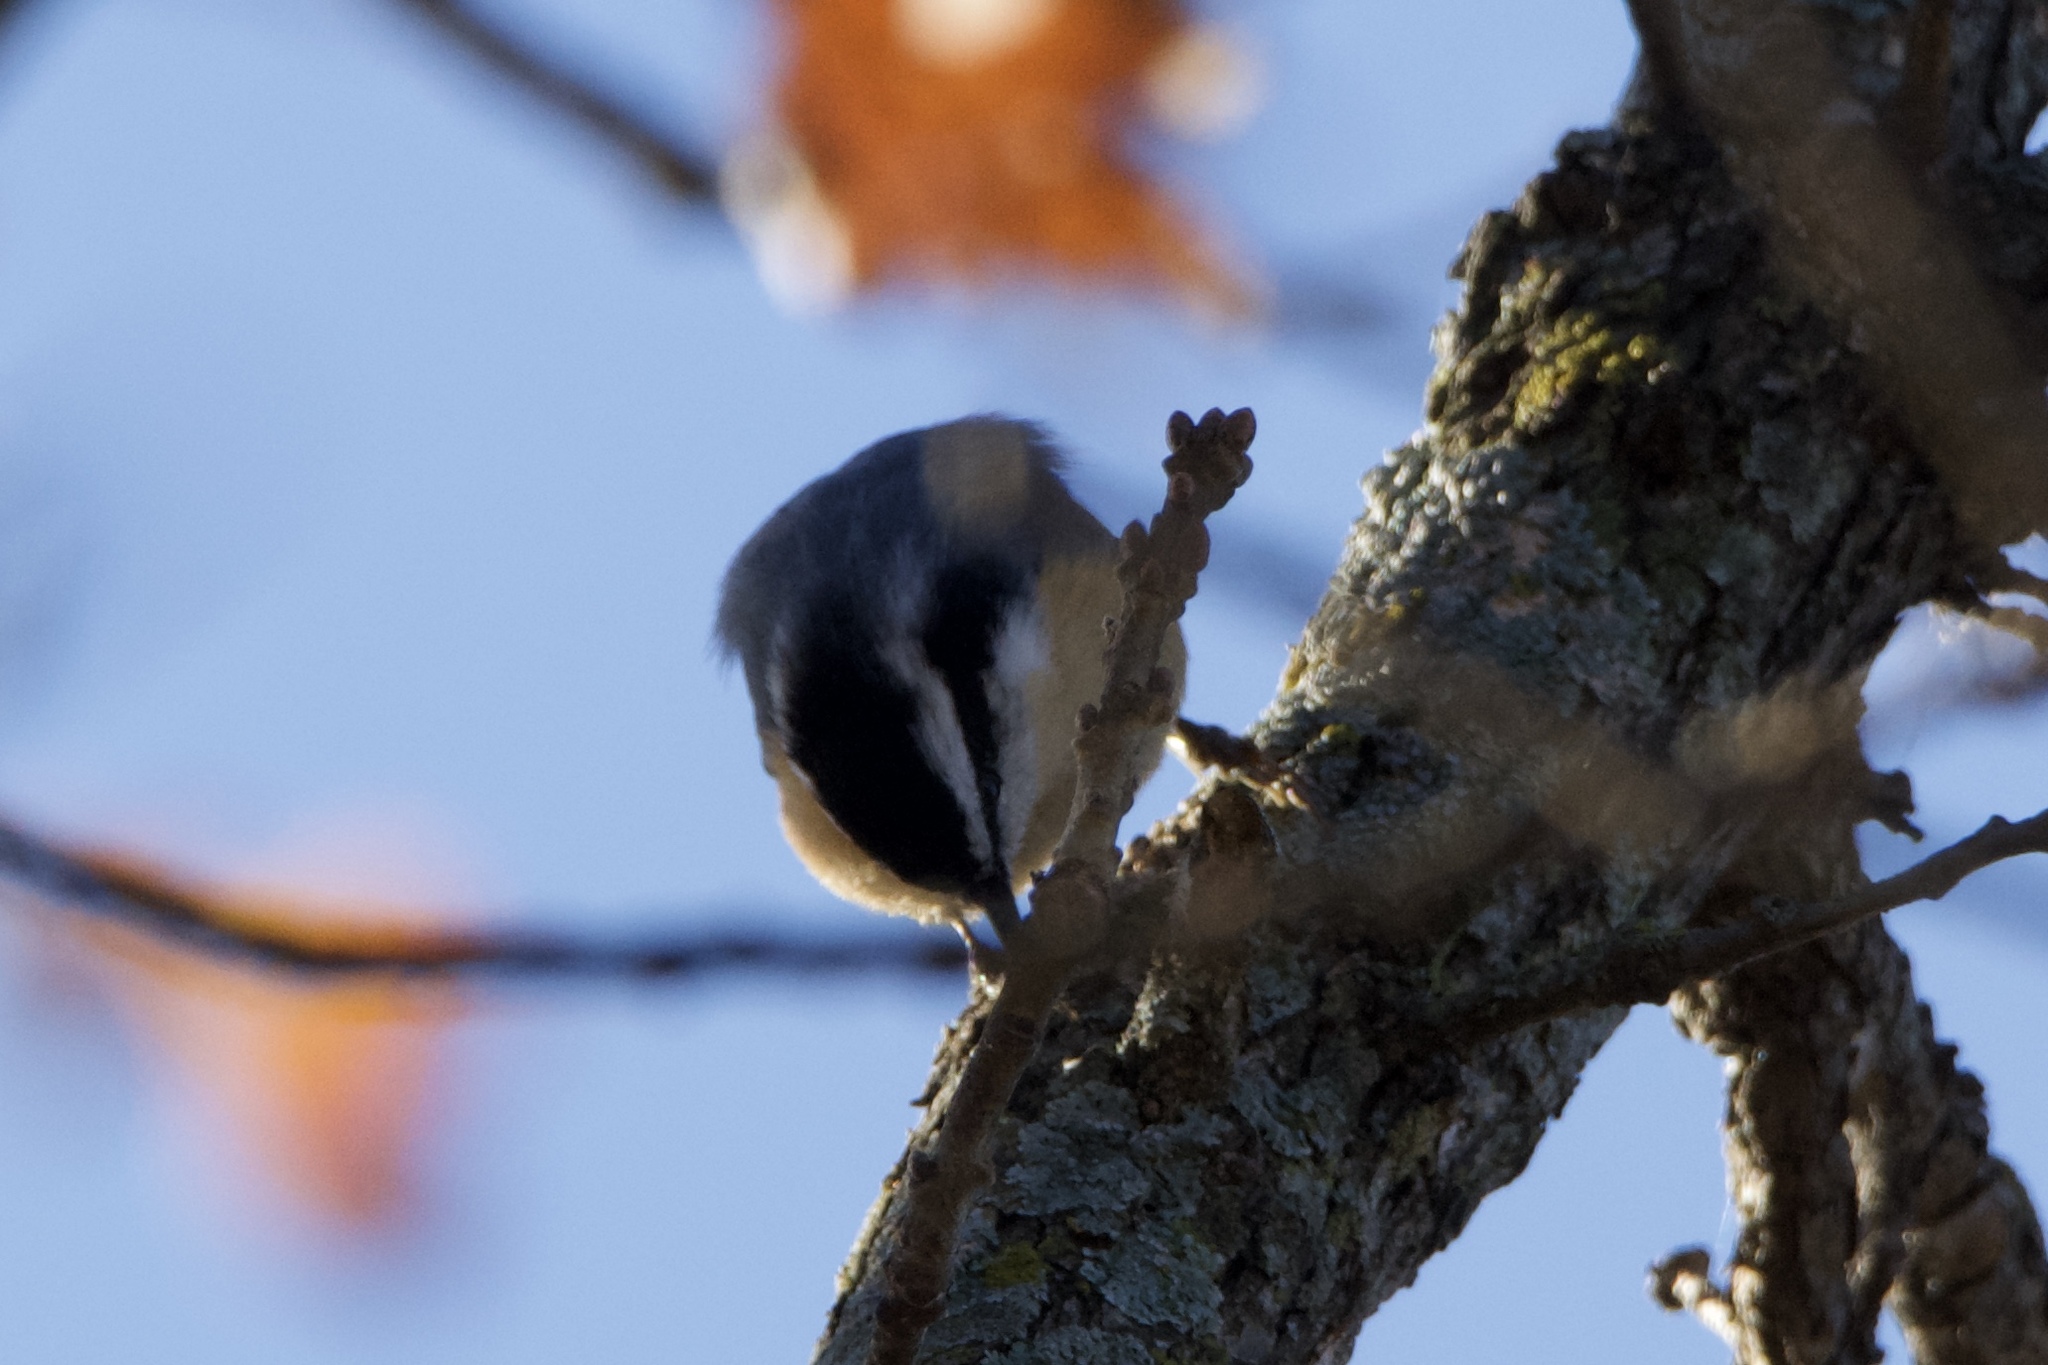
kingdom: Animalia
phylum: Chordata
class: Aves
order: Passeriformes
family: Sittidae
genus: Sitta
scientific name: Sitta canadensis
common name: Red-breasted nuthatch
